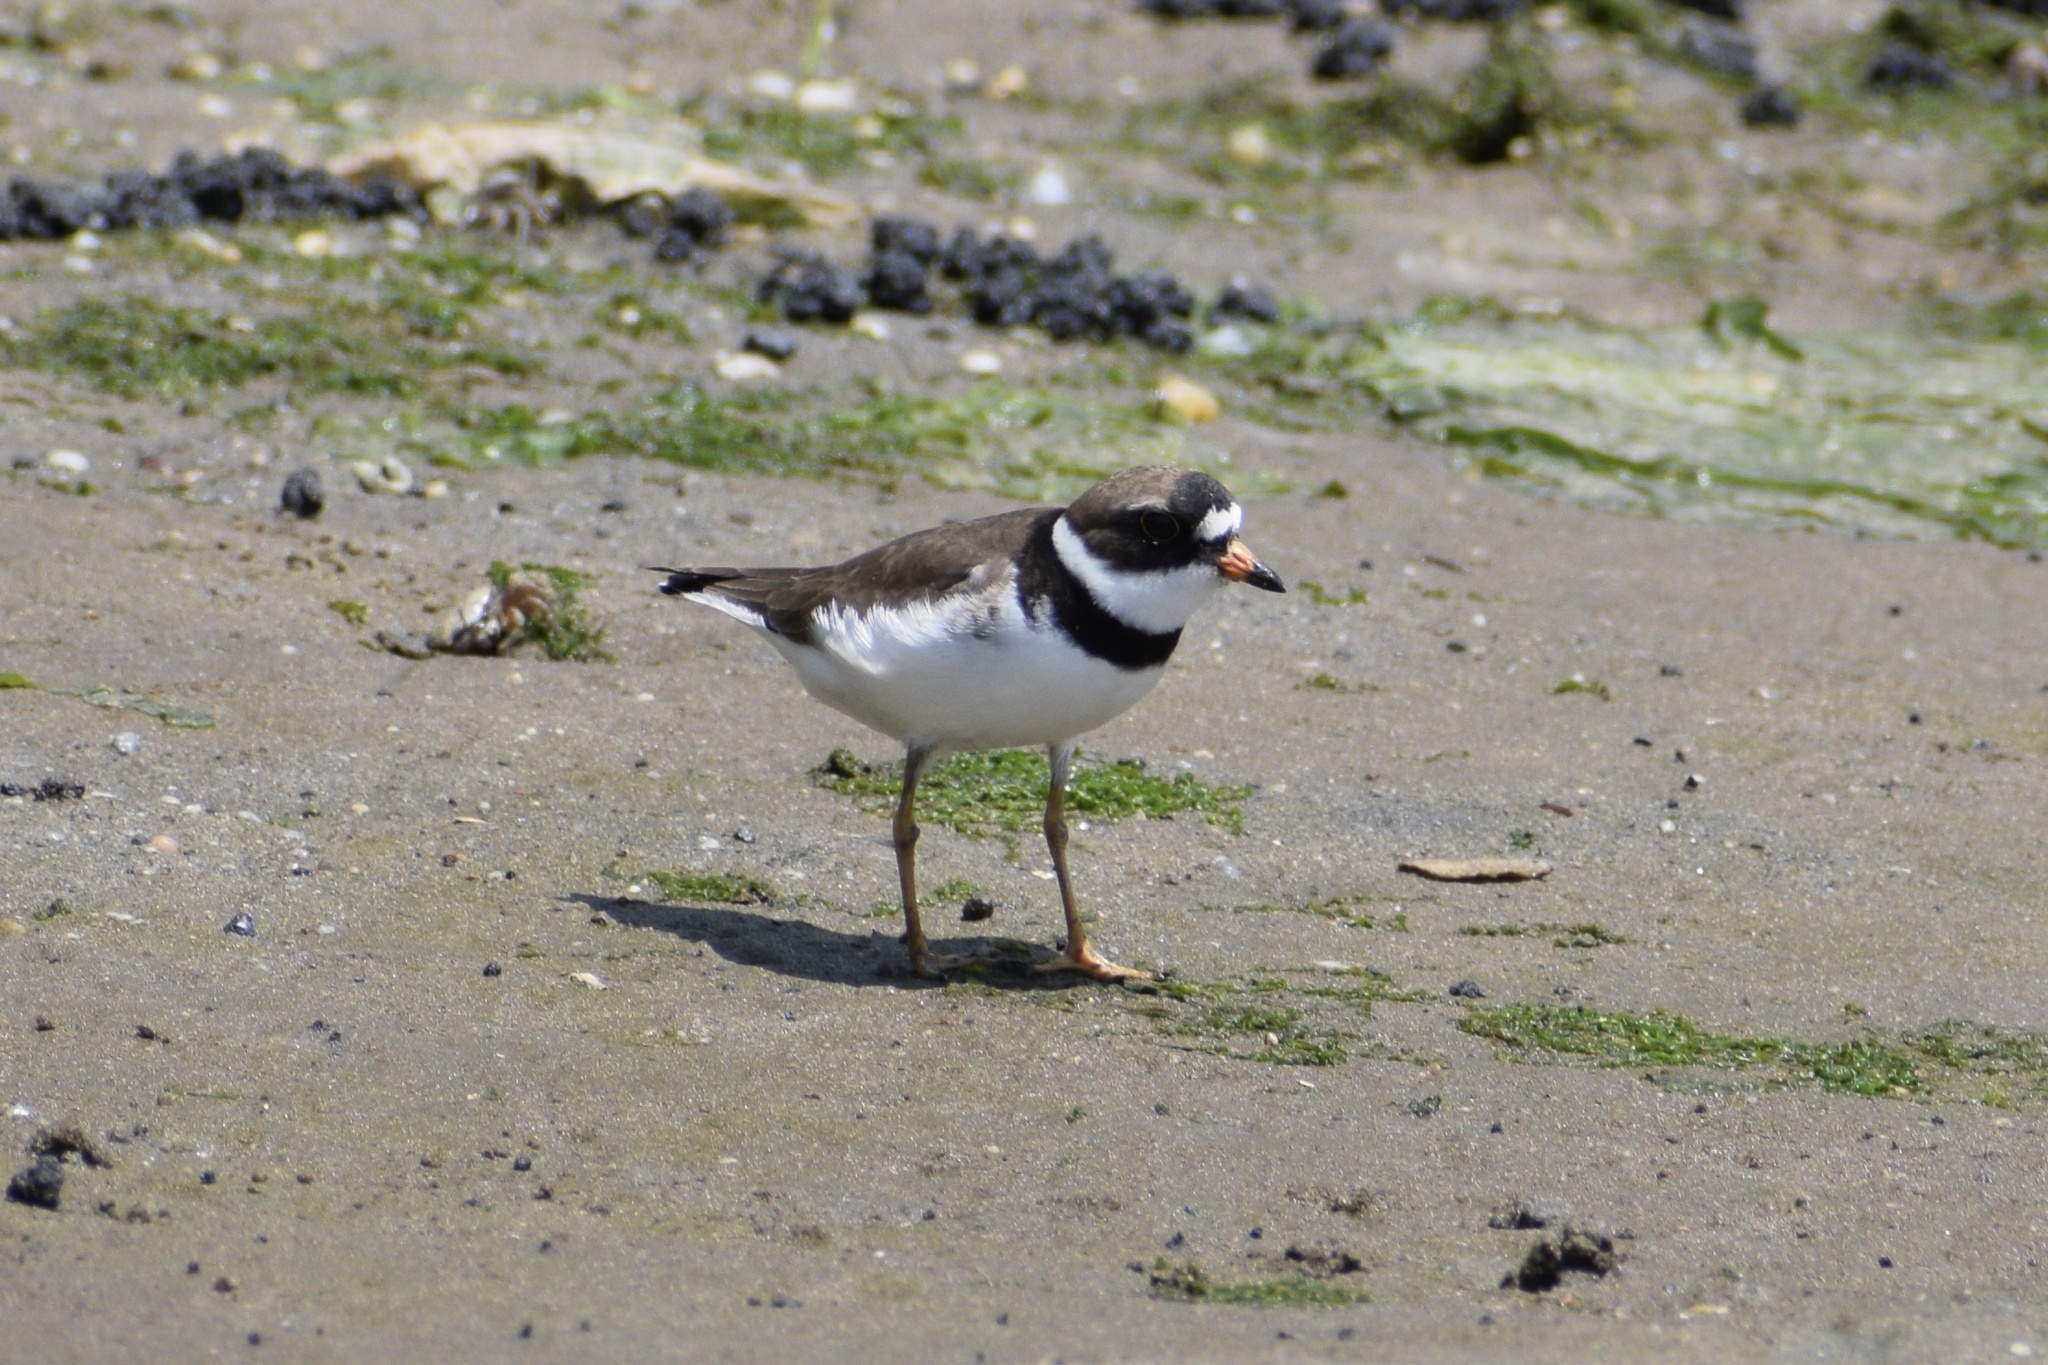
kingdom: Animalia
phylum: Chordata
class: Aves
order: Charadriiformes
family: Charadriidae
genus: Charadrius
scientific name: Charadrius semipalmatus
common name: Semipalmated plover
